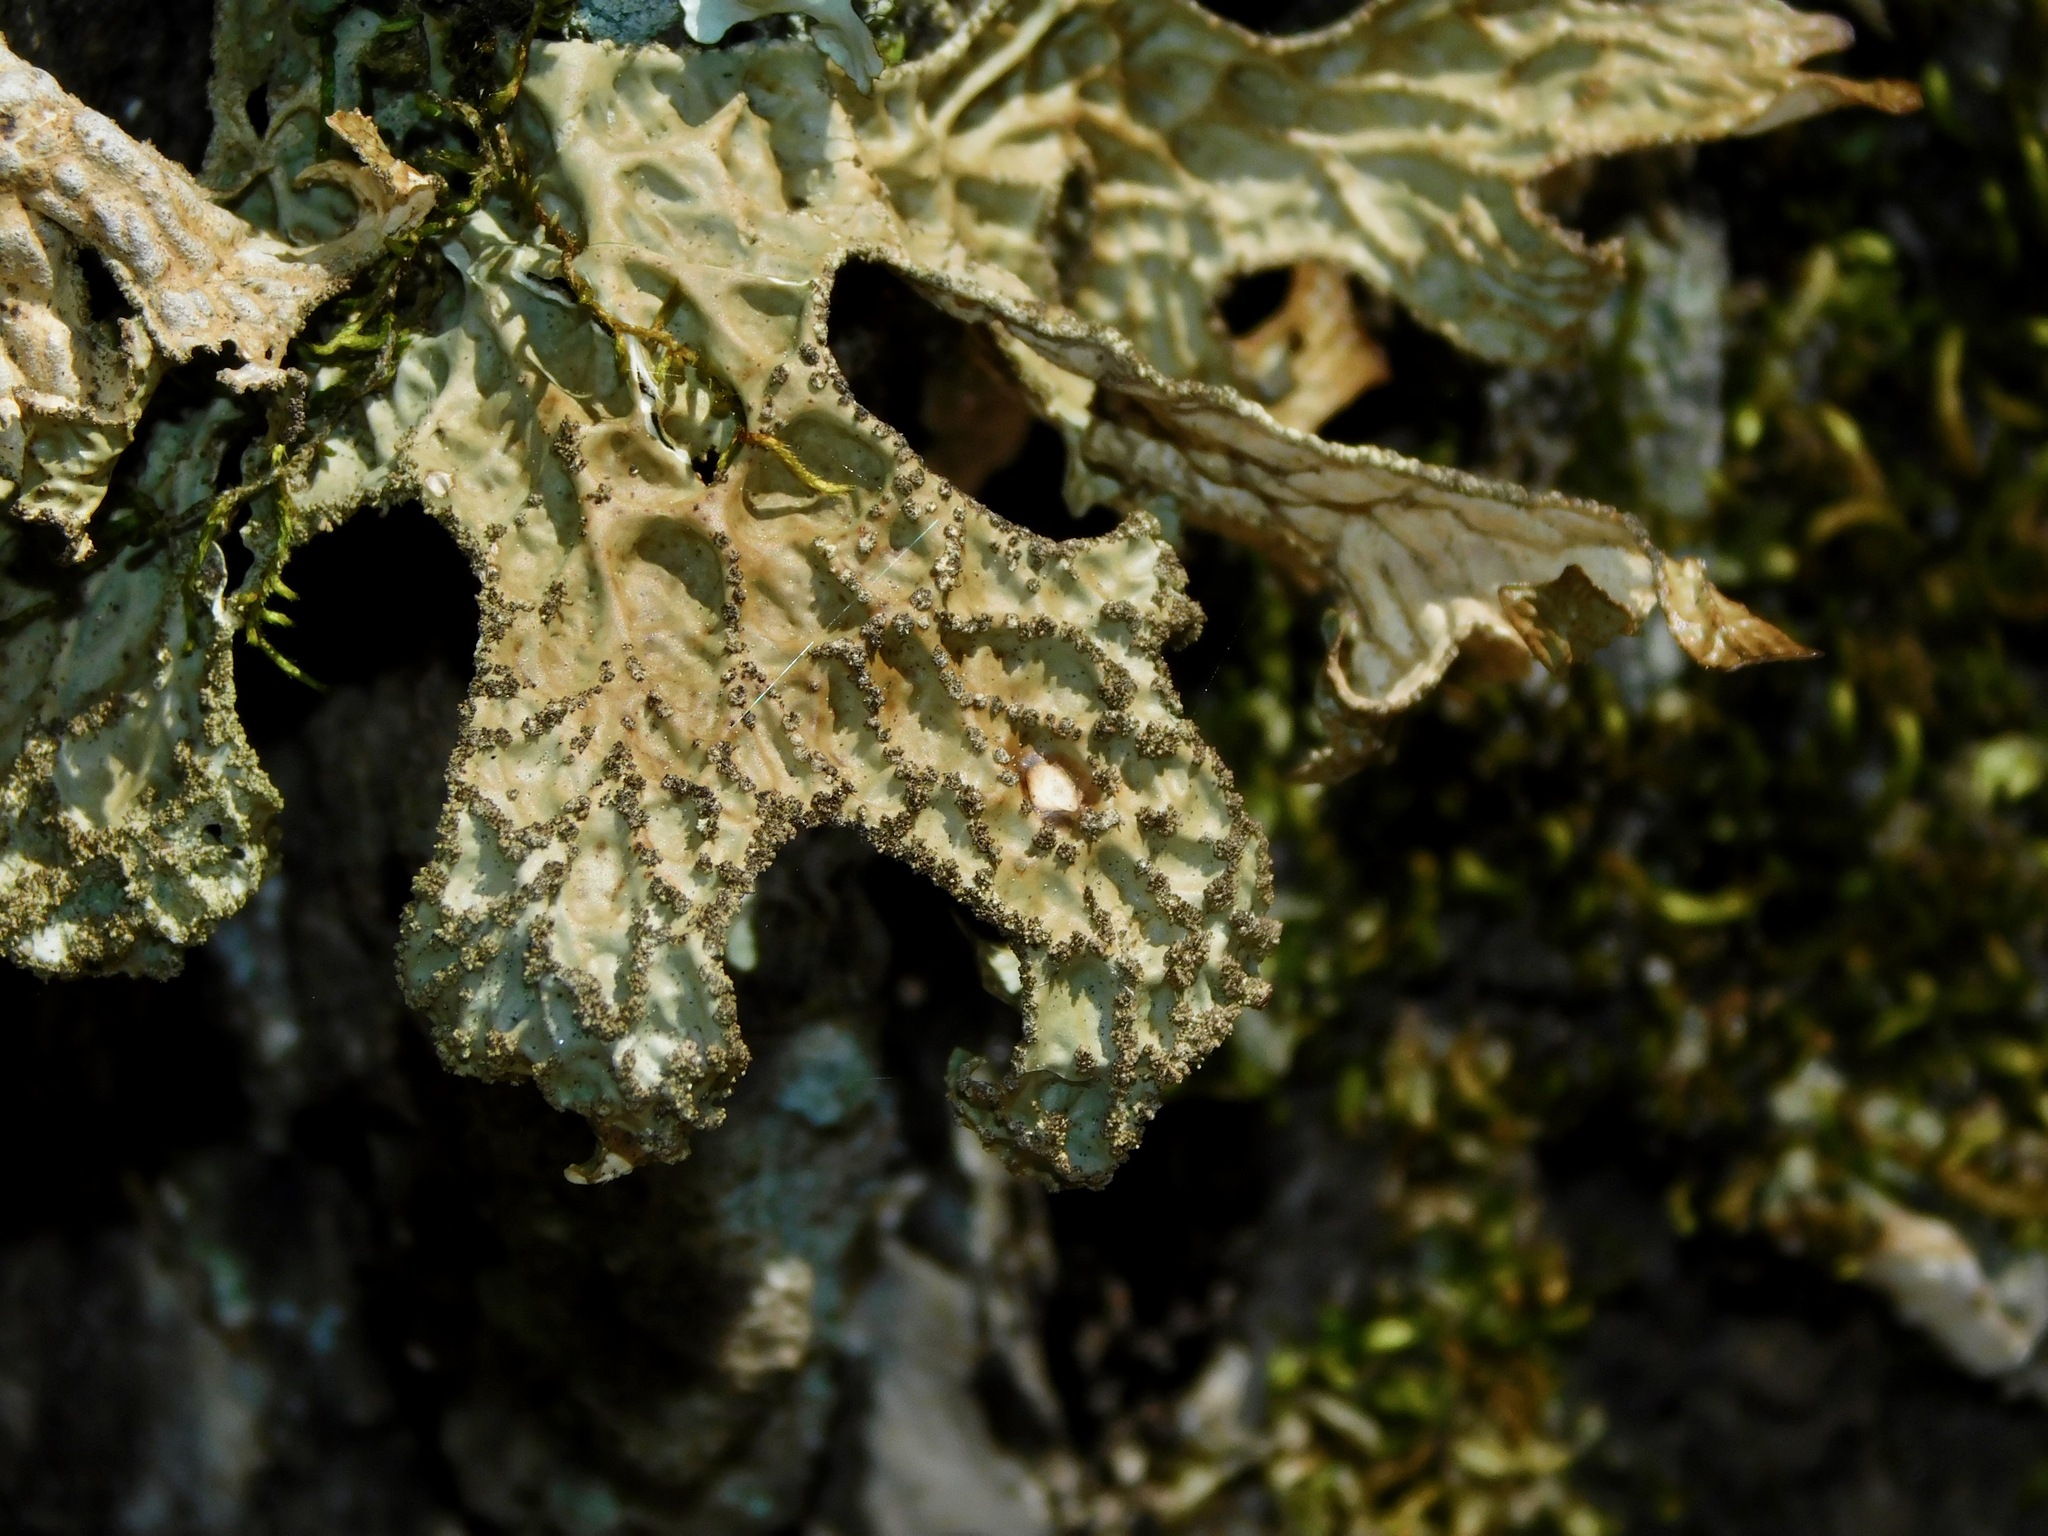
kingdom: Fungi
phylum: Ascomycota
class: Lecanoromycetes
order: Peltigerales
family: Lobariaceae
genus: Lobaria
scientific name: Lobaria pulmonaria
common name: Lungwort
